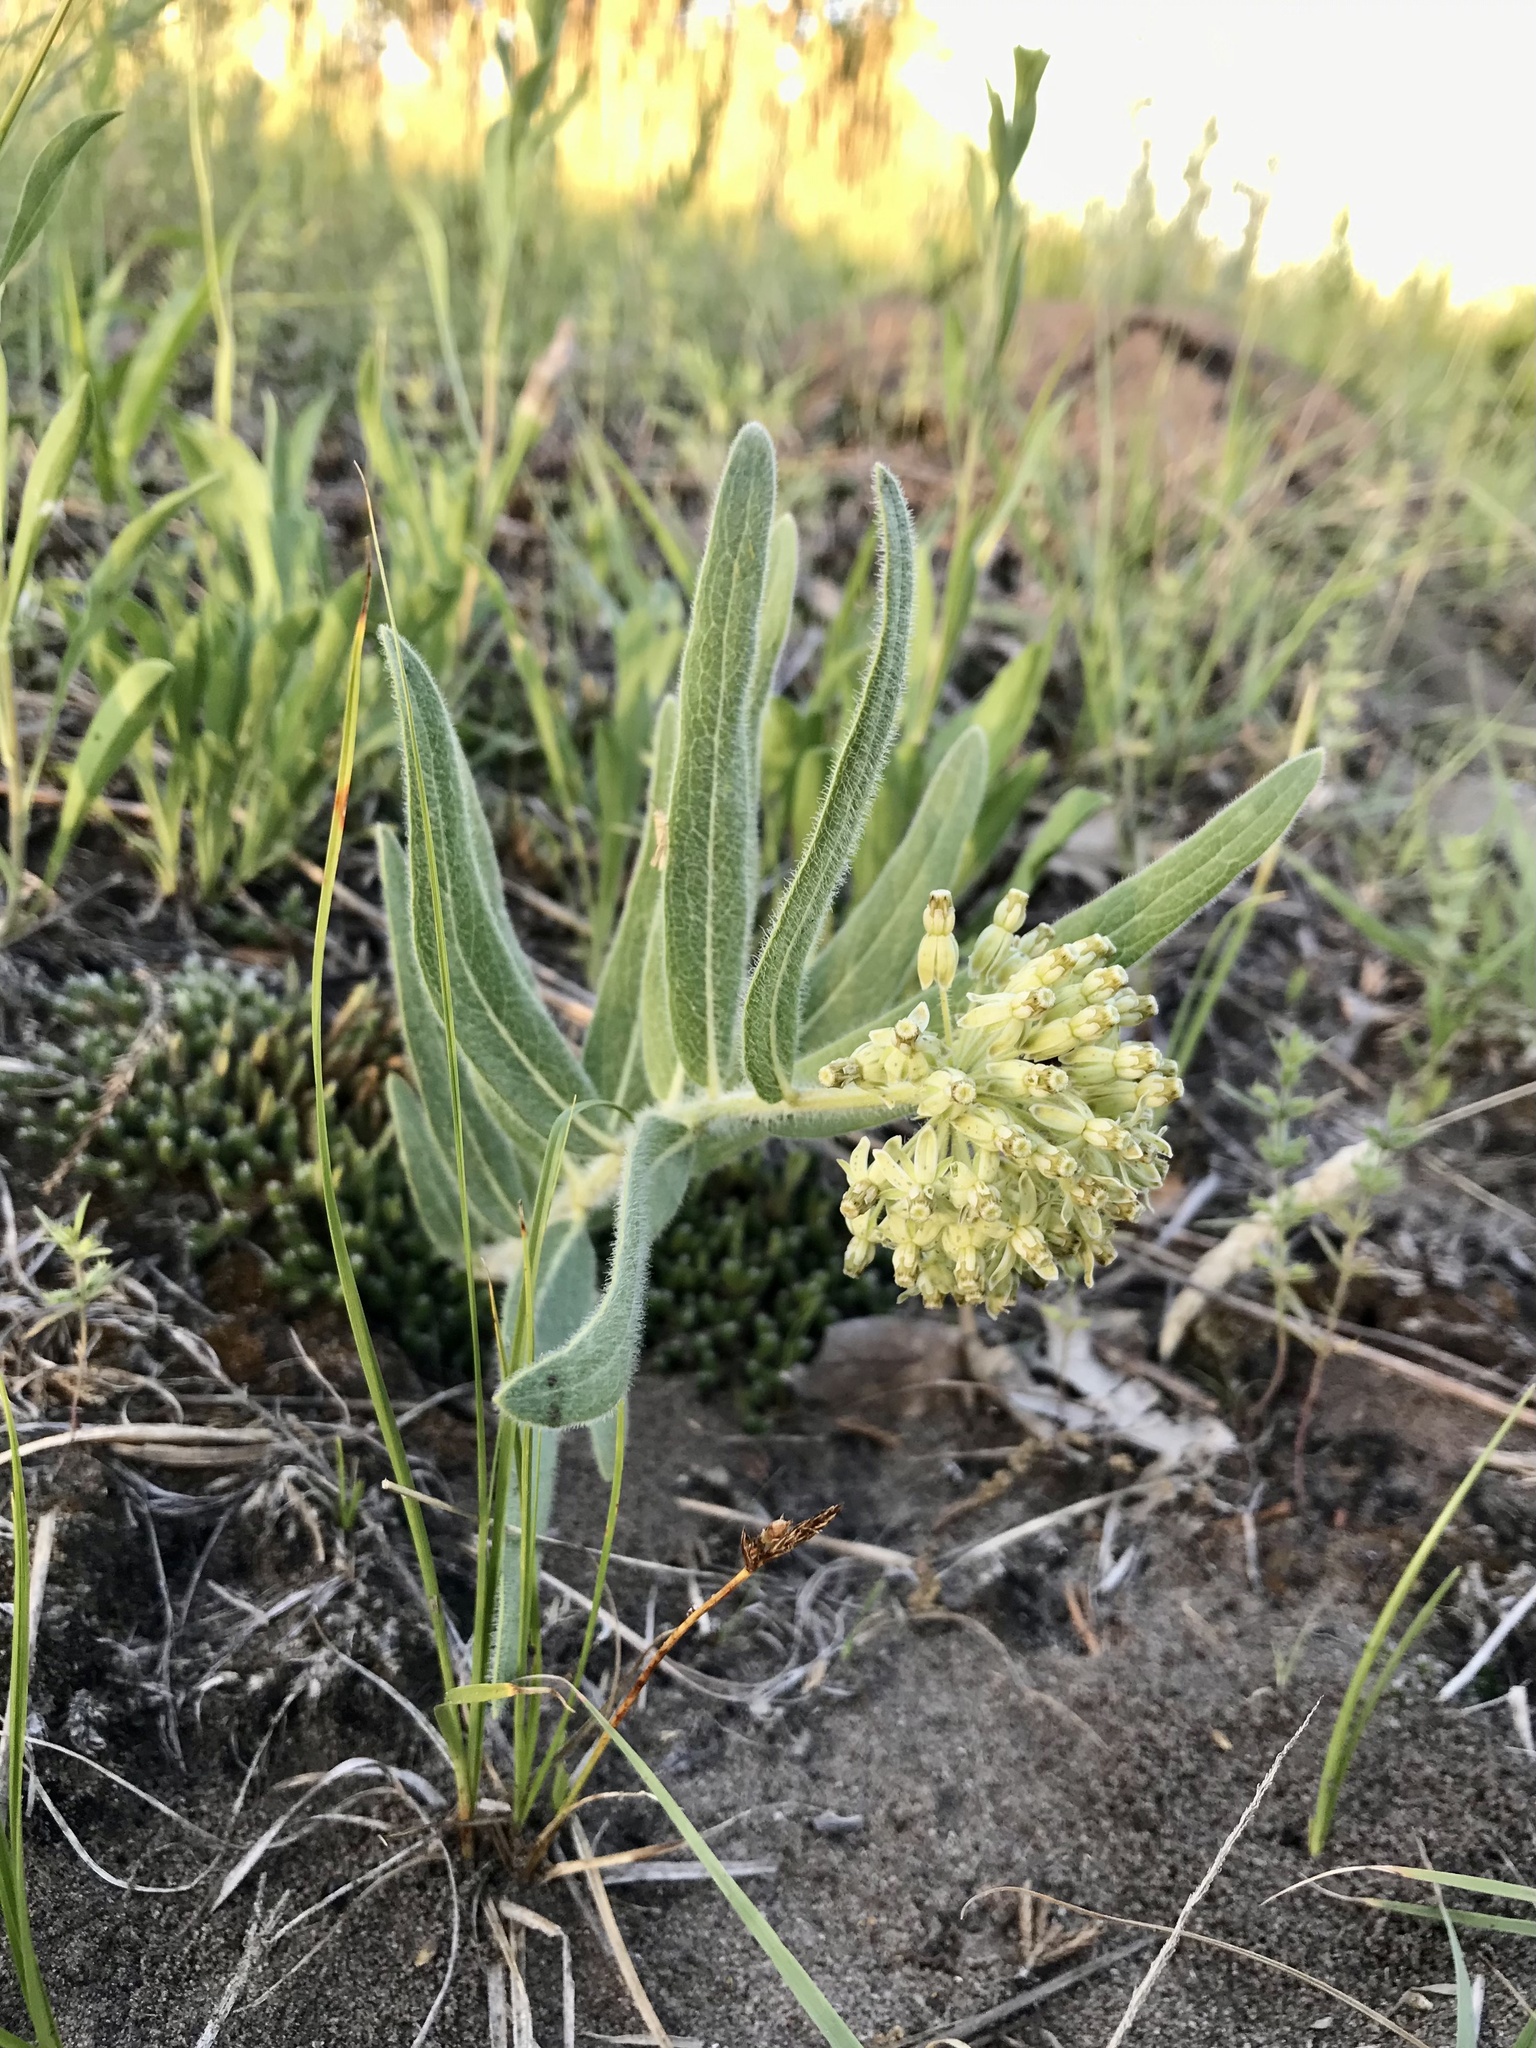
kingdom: Plantae
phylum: Tracheophyta
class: Magnoliopsida
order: Gentianales
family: Apocynaceae
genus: Asclepias
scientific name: Asclepias lanuginosa
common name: Side-cluster milkweed
